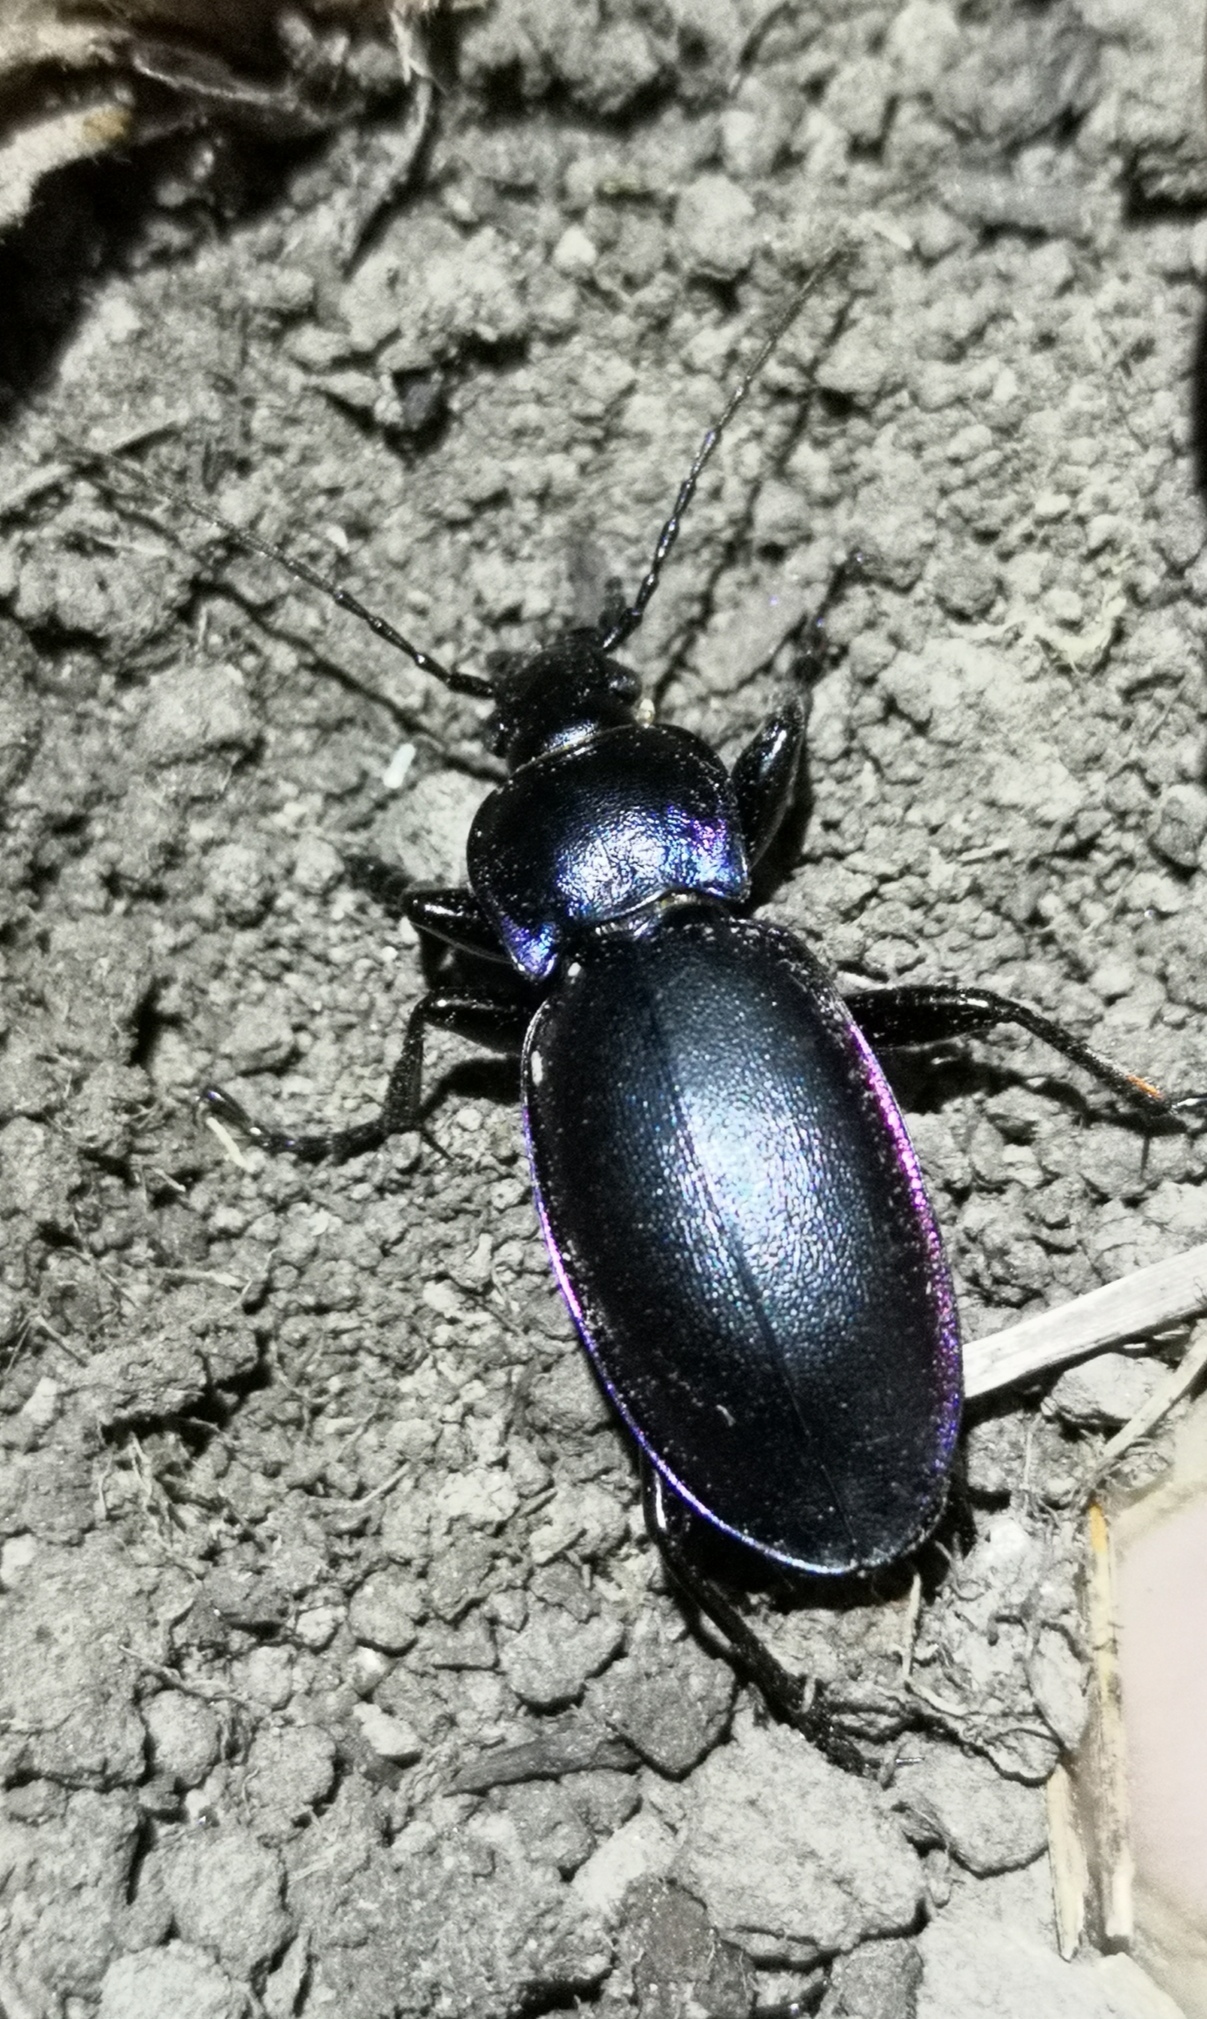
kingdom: Animalia
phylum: Arthropoda
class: Insecta
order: Coleoptera
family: Carabidae
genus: Carabus
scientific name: Carabus violaceus
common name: Violet ground beetle
